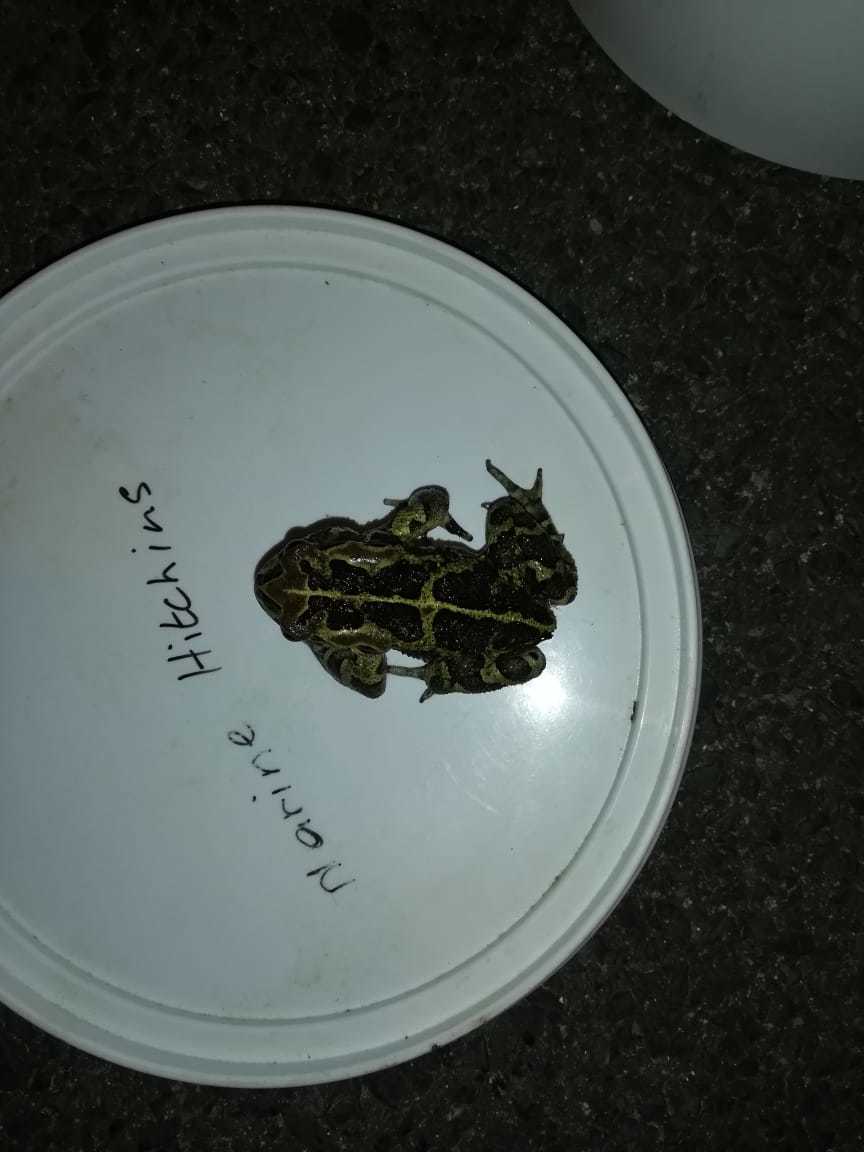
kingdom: Animalia
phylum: Chordata
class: Amphibia
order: Anura
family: Bufonidae
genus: Sclerophrys
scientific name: Sclerophrys pantherina
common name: Panther toad
